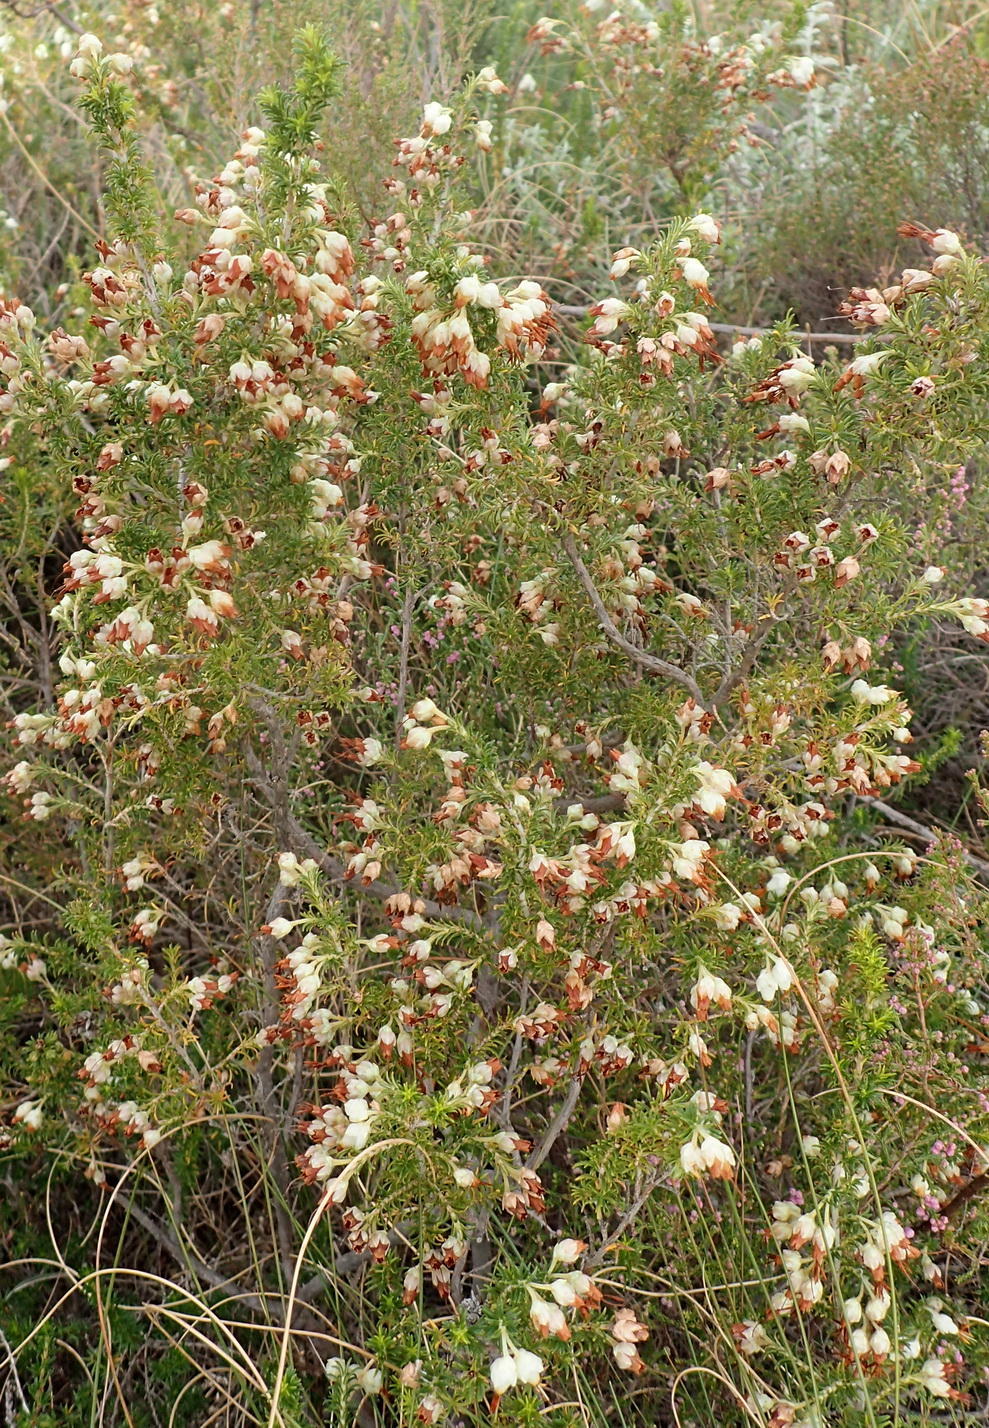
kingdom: Plantae
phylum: Tracheophyta
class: Magnoliopsida
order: Ericales
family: Ericaceae
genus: Erica
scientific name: Erica intermedia
